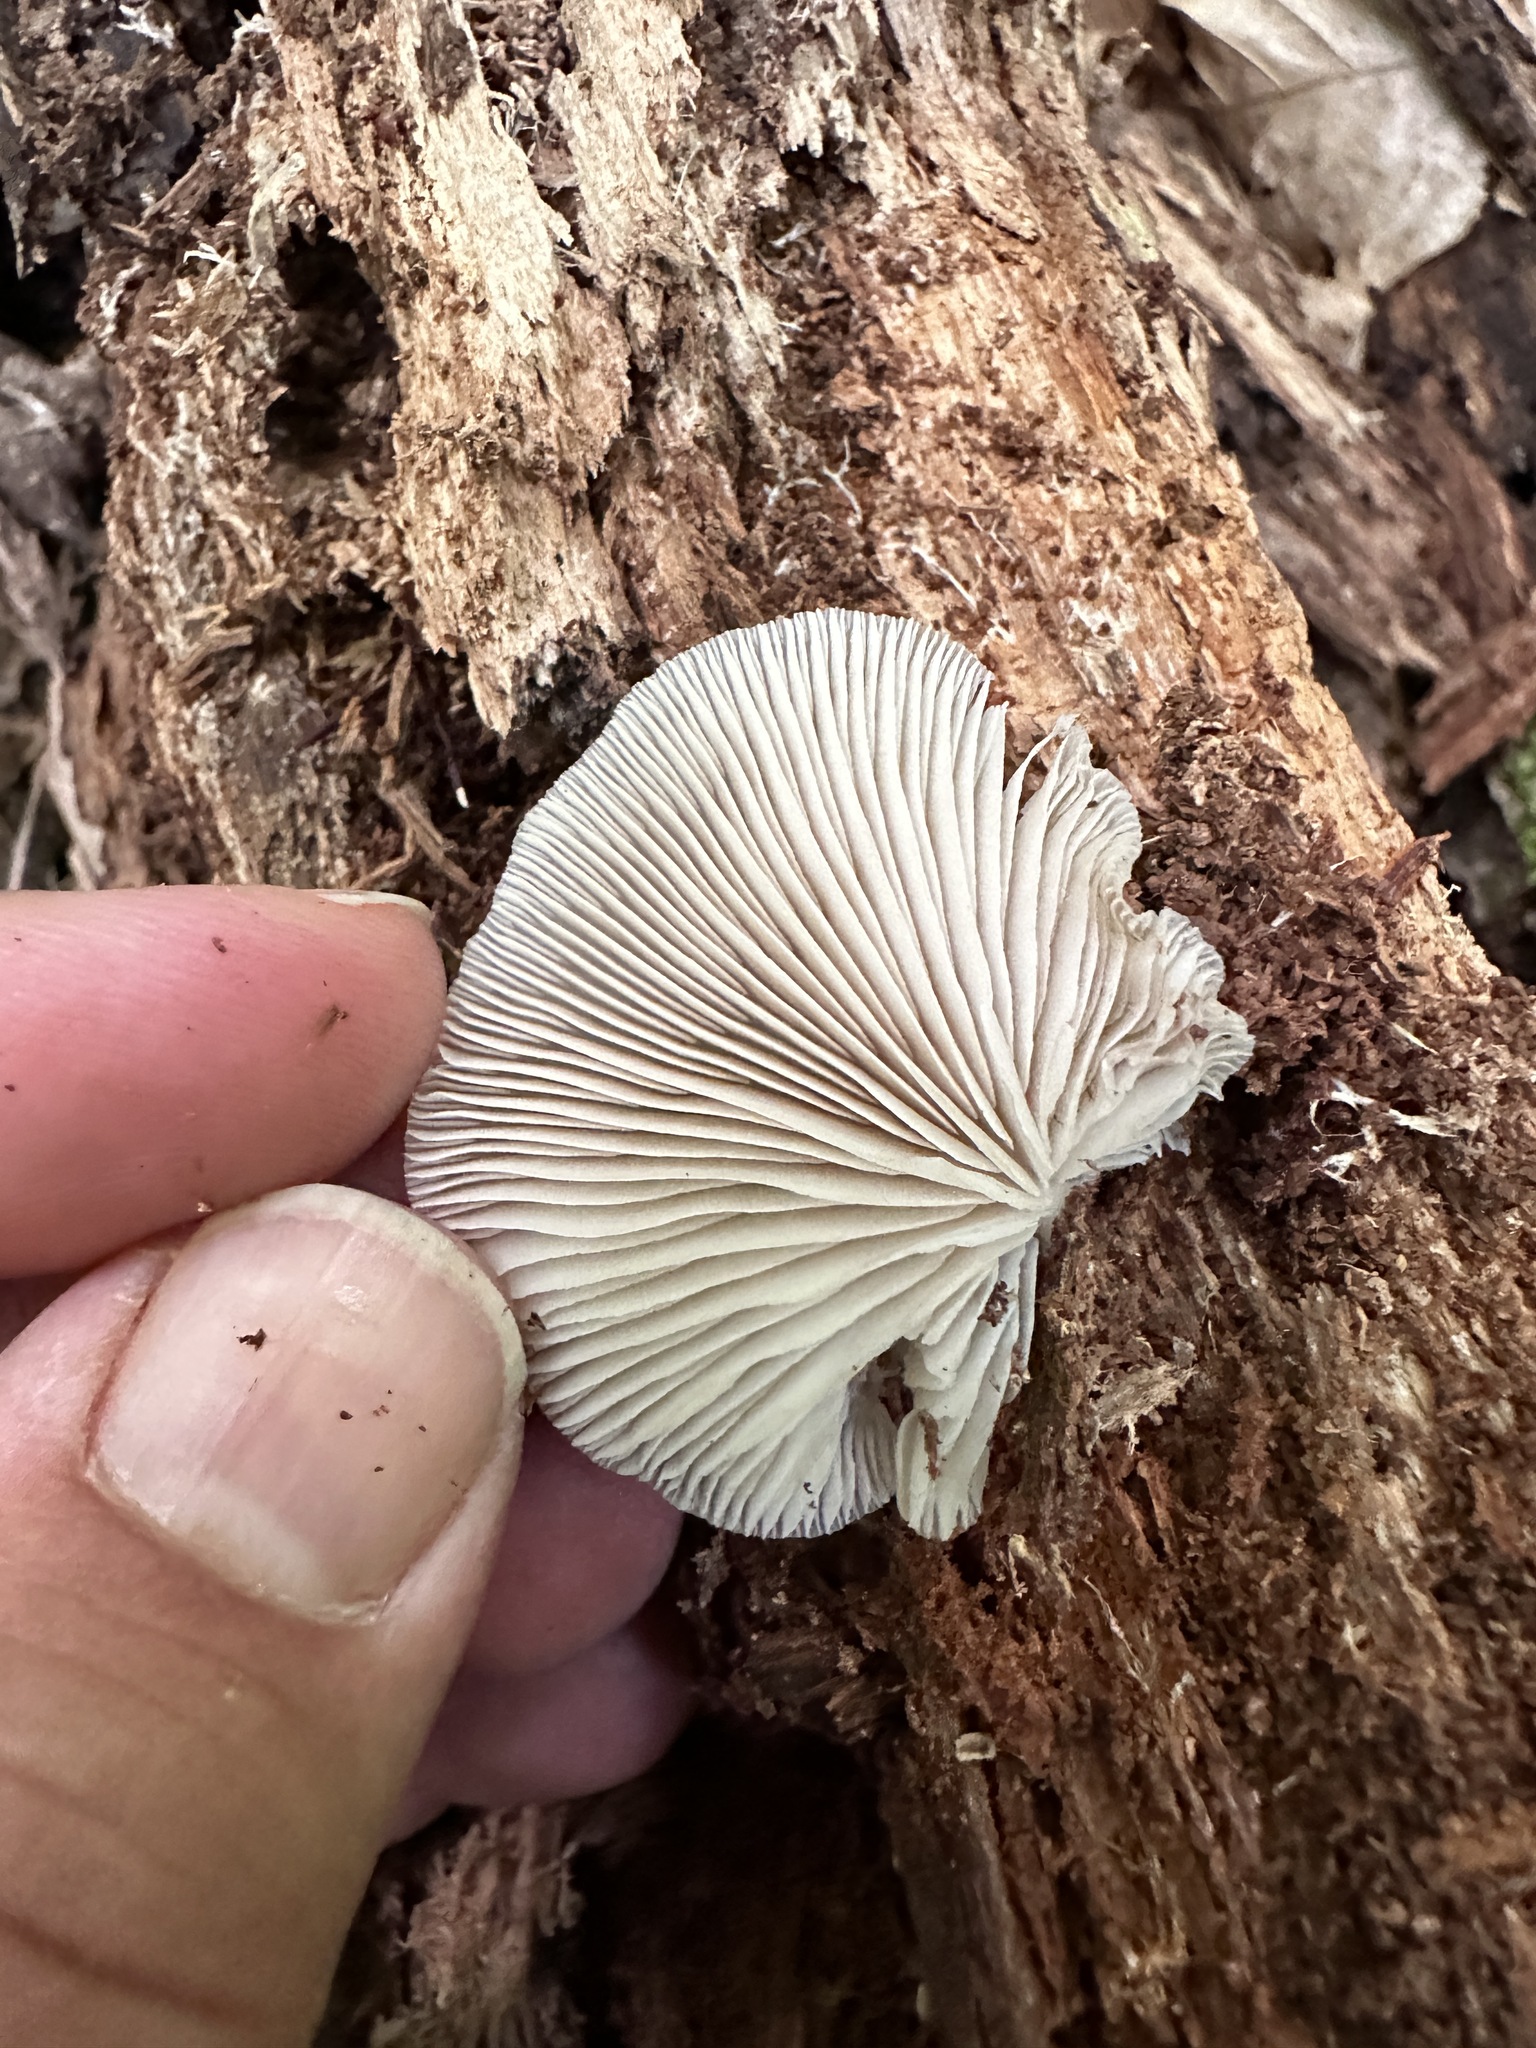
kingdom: Fungi
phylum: Basidiomycota
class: Agaricomycetes
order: Agaricales
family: Crepidotaceae
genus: Crepidotus
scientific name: Crepidotus malachius
